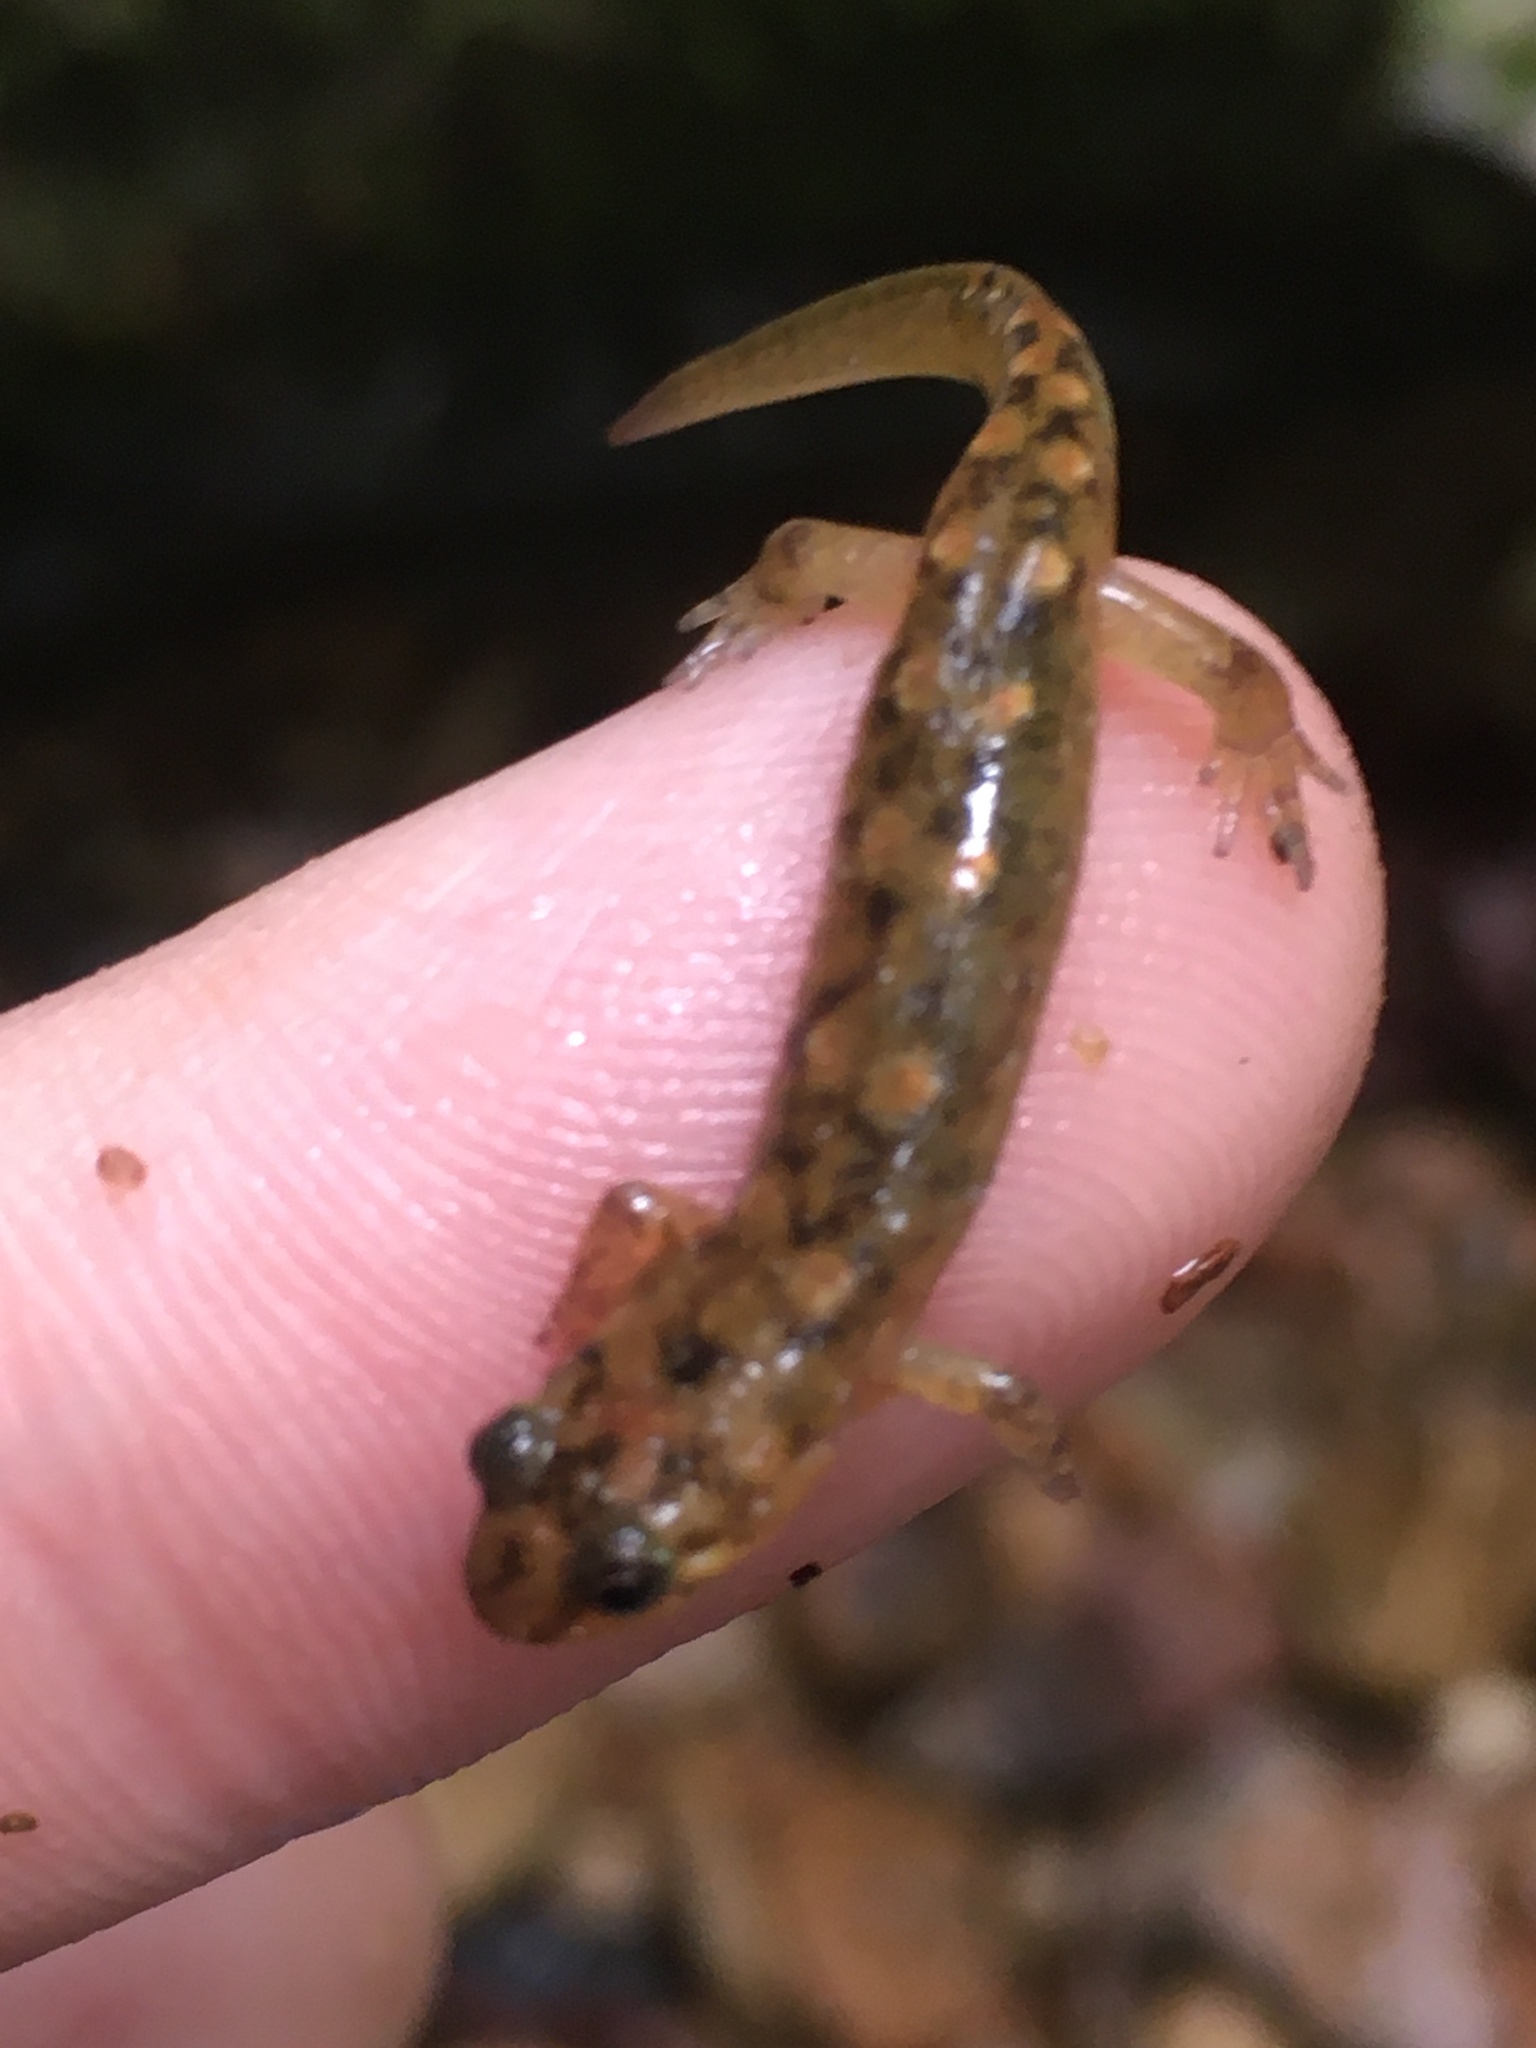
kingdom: Animalia
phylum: Chordata
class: Amphibia
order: Caudata
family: Plethodontidae
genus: Desmognathus
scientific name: Desmognathus monticola
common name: Seal salamander
